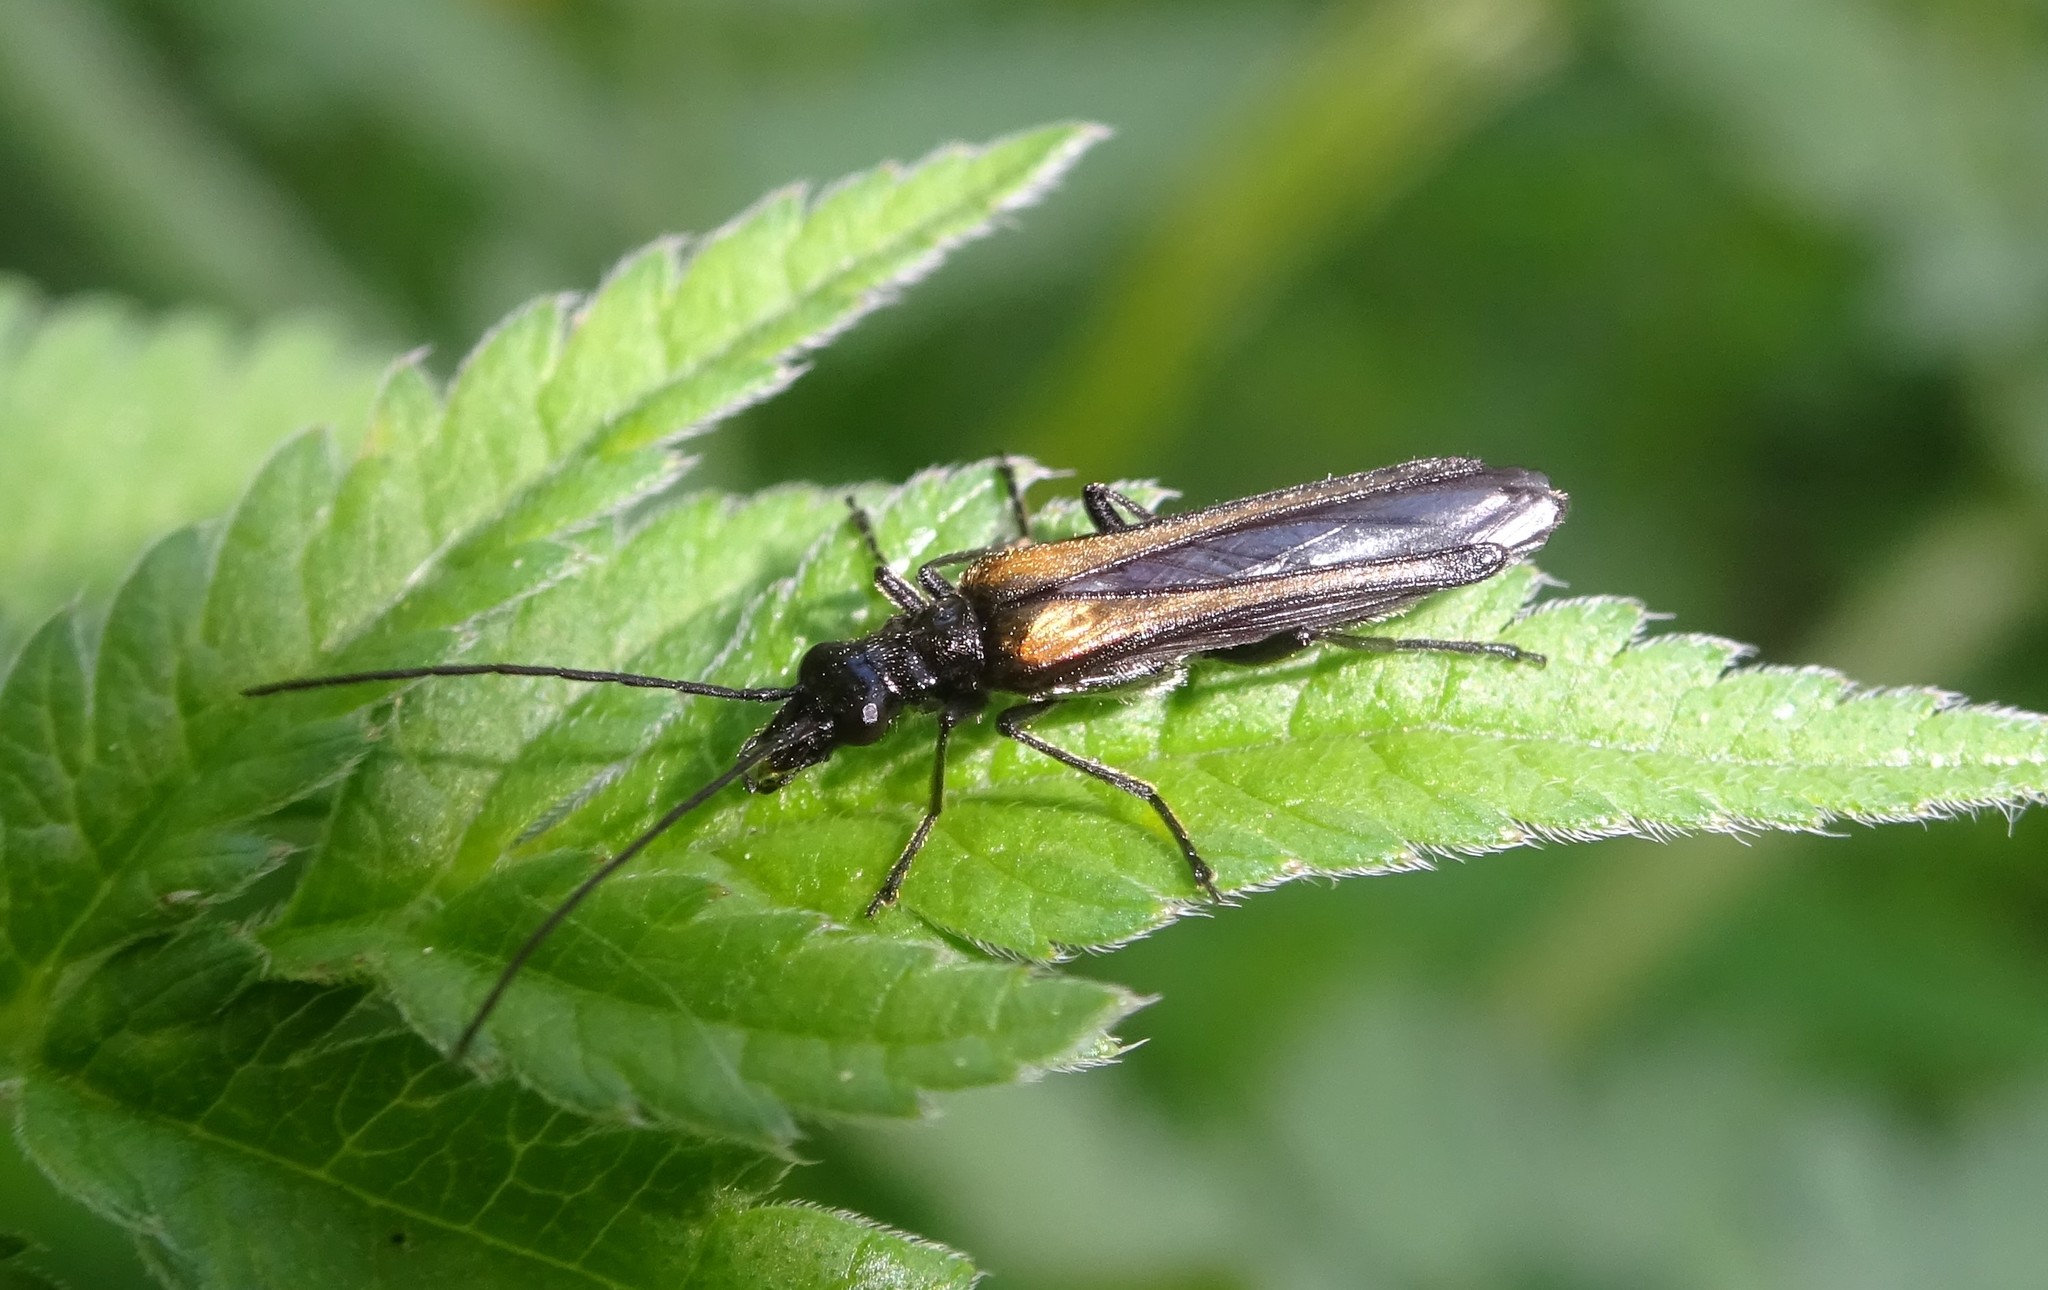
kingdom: Animalia
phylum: Arthropoda
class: Insecta
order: Coleoptera
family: Oedemeridae
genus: Oedemera
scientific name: Oedemera pthysica
